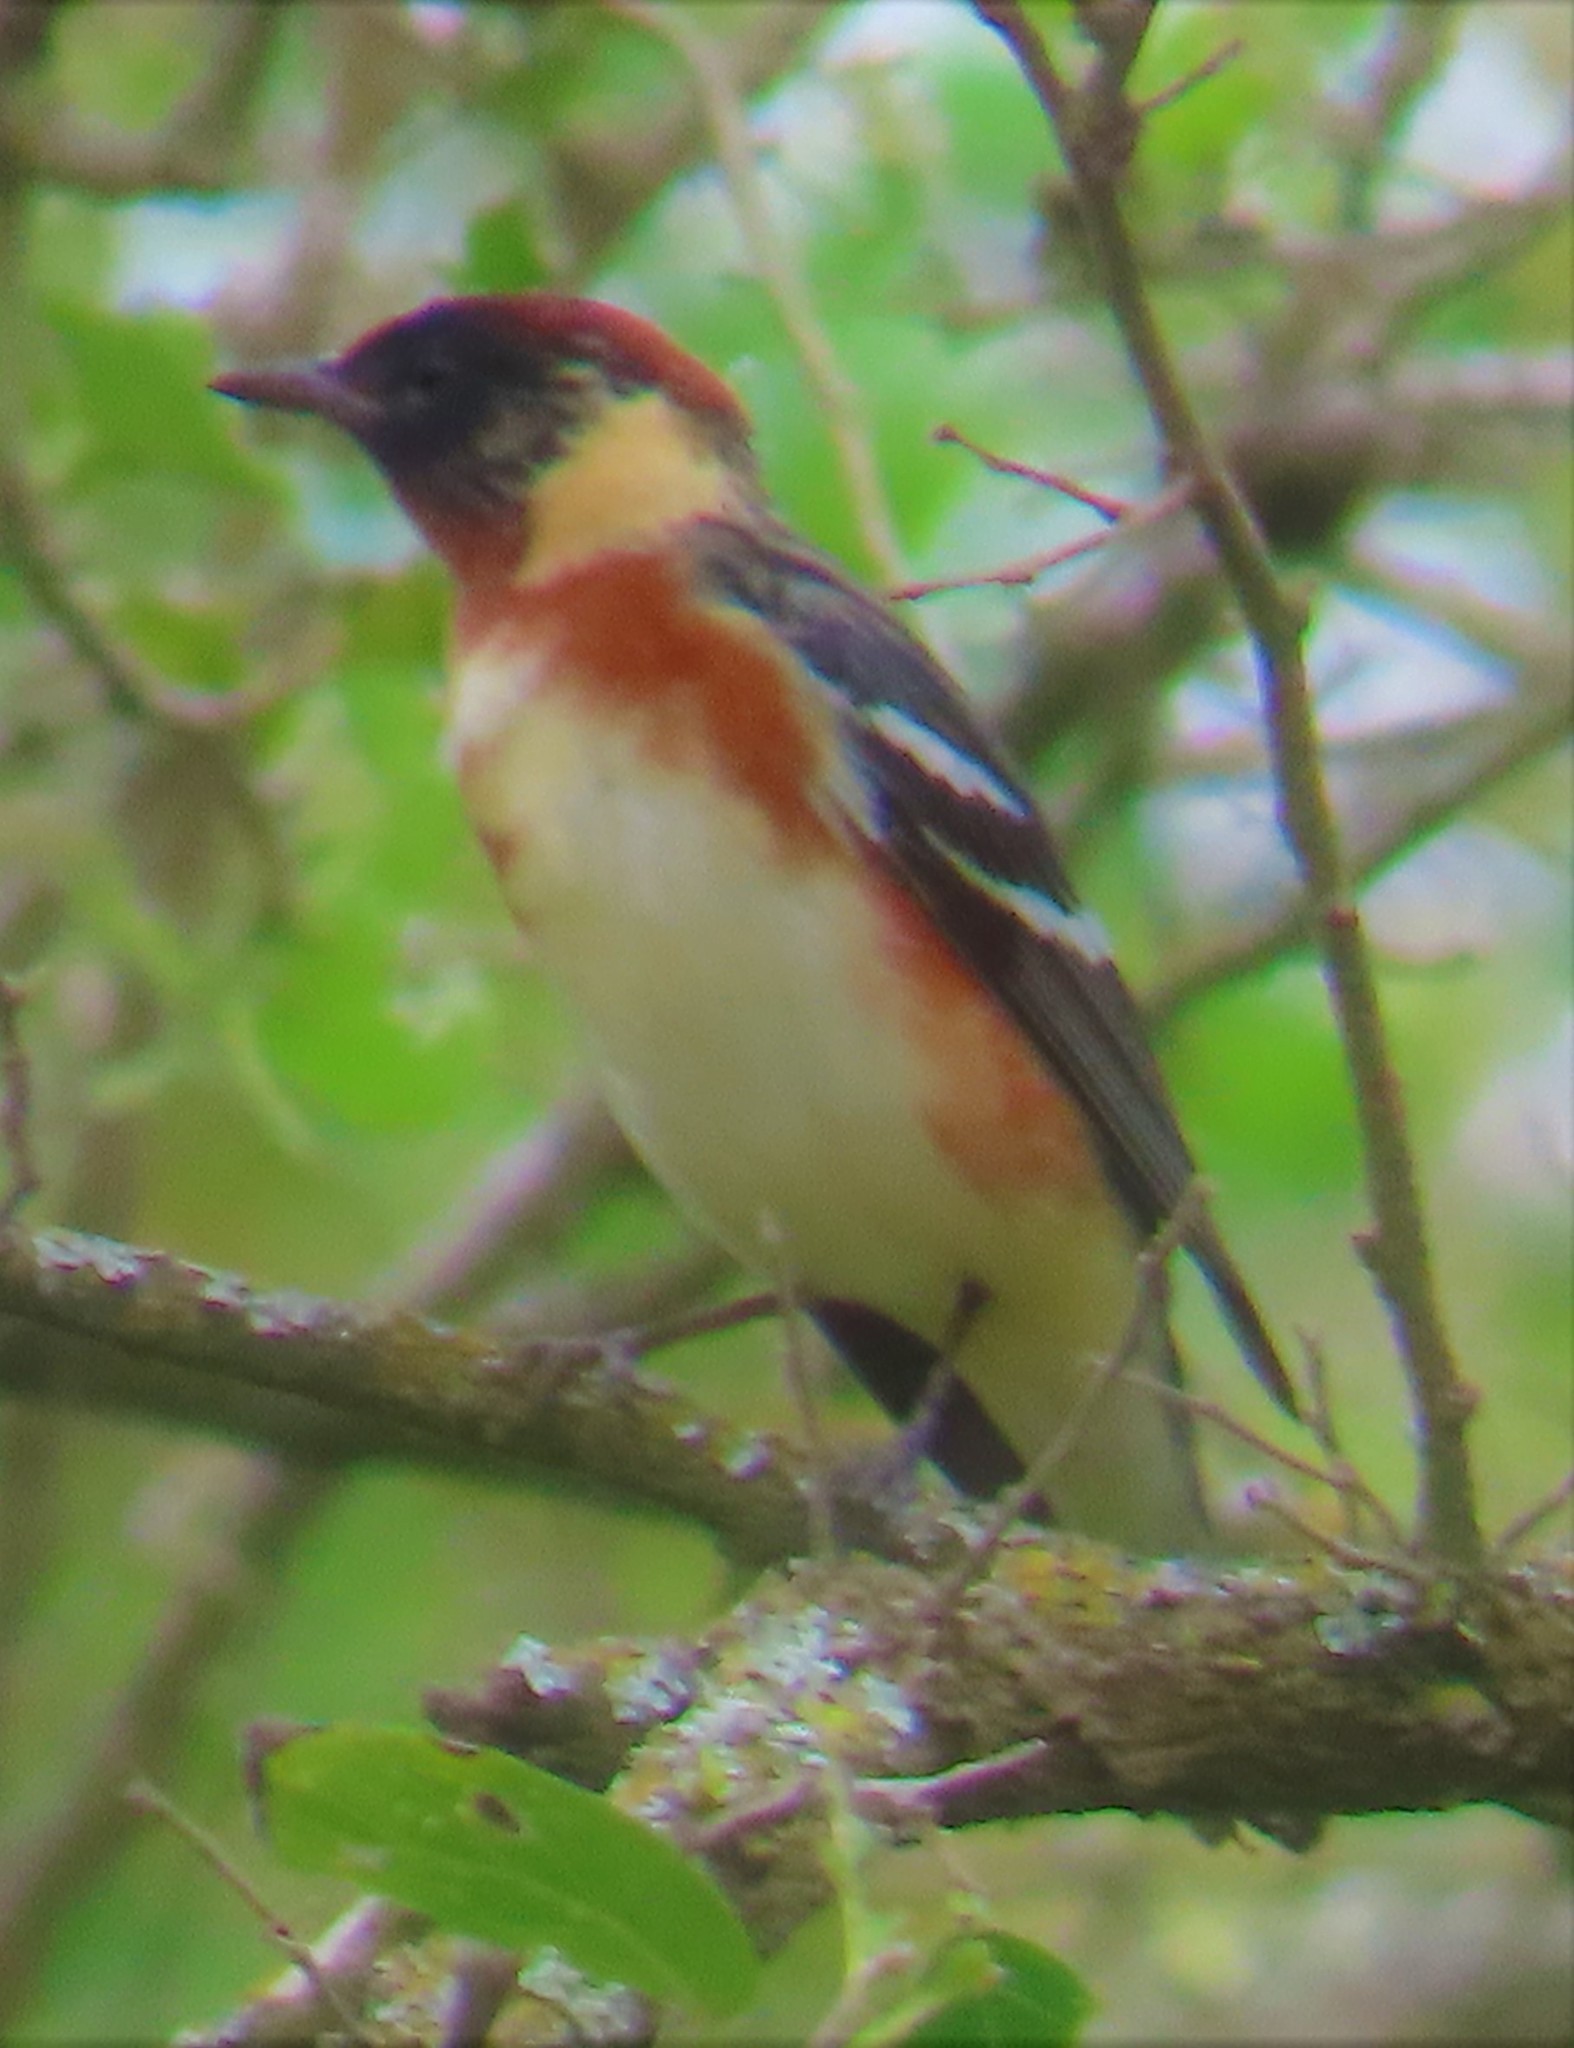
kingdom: Animalia
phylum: Chordata
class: Aves
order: Passeriformes
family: Parulidae
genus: Setophaga
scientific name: Setophaga castanea
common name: Bay-breasted warbler
